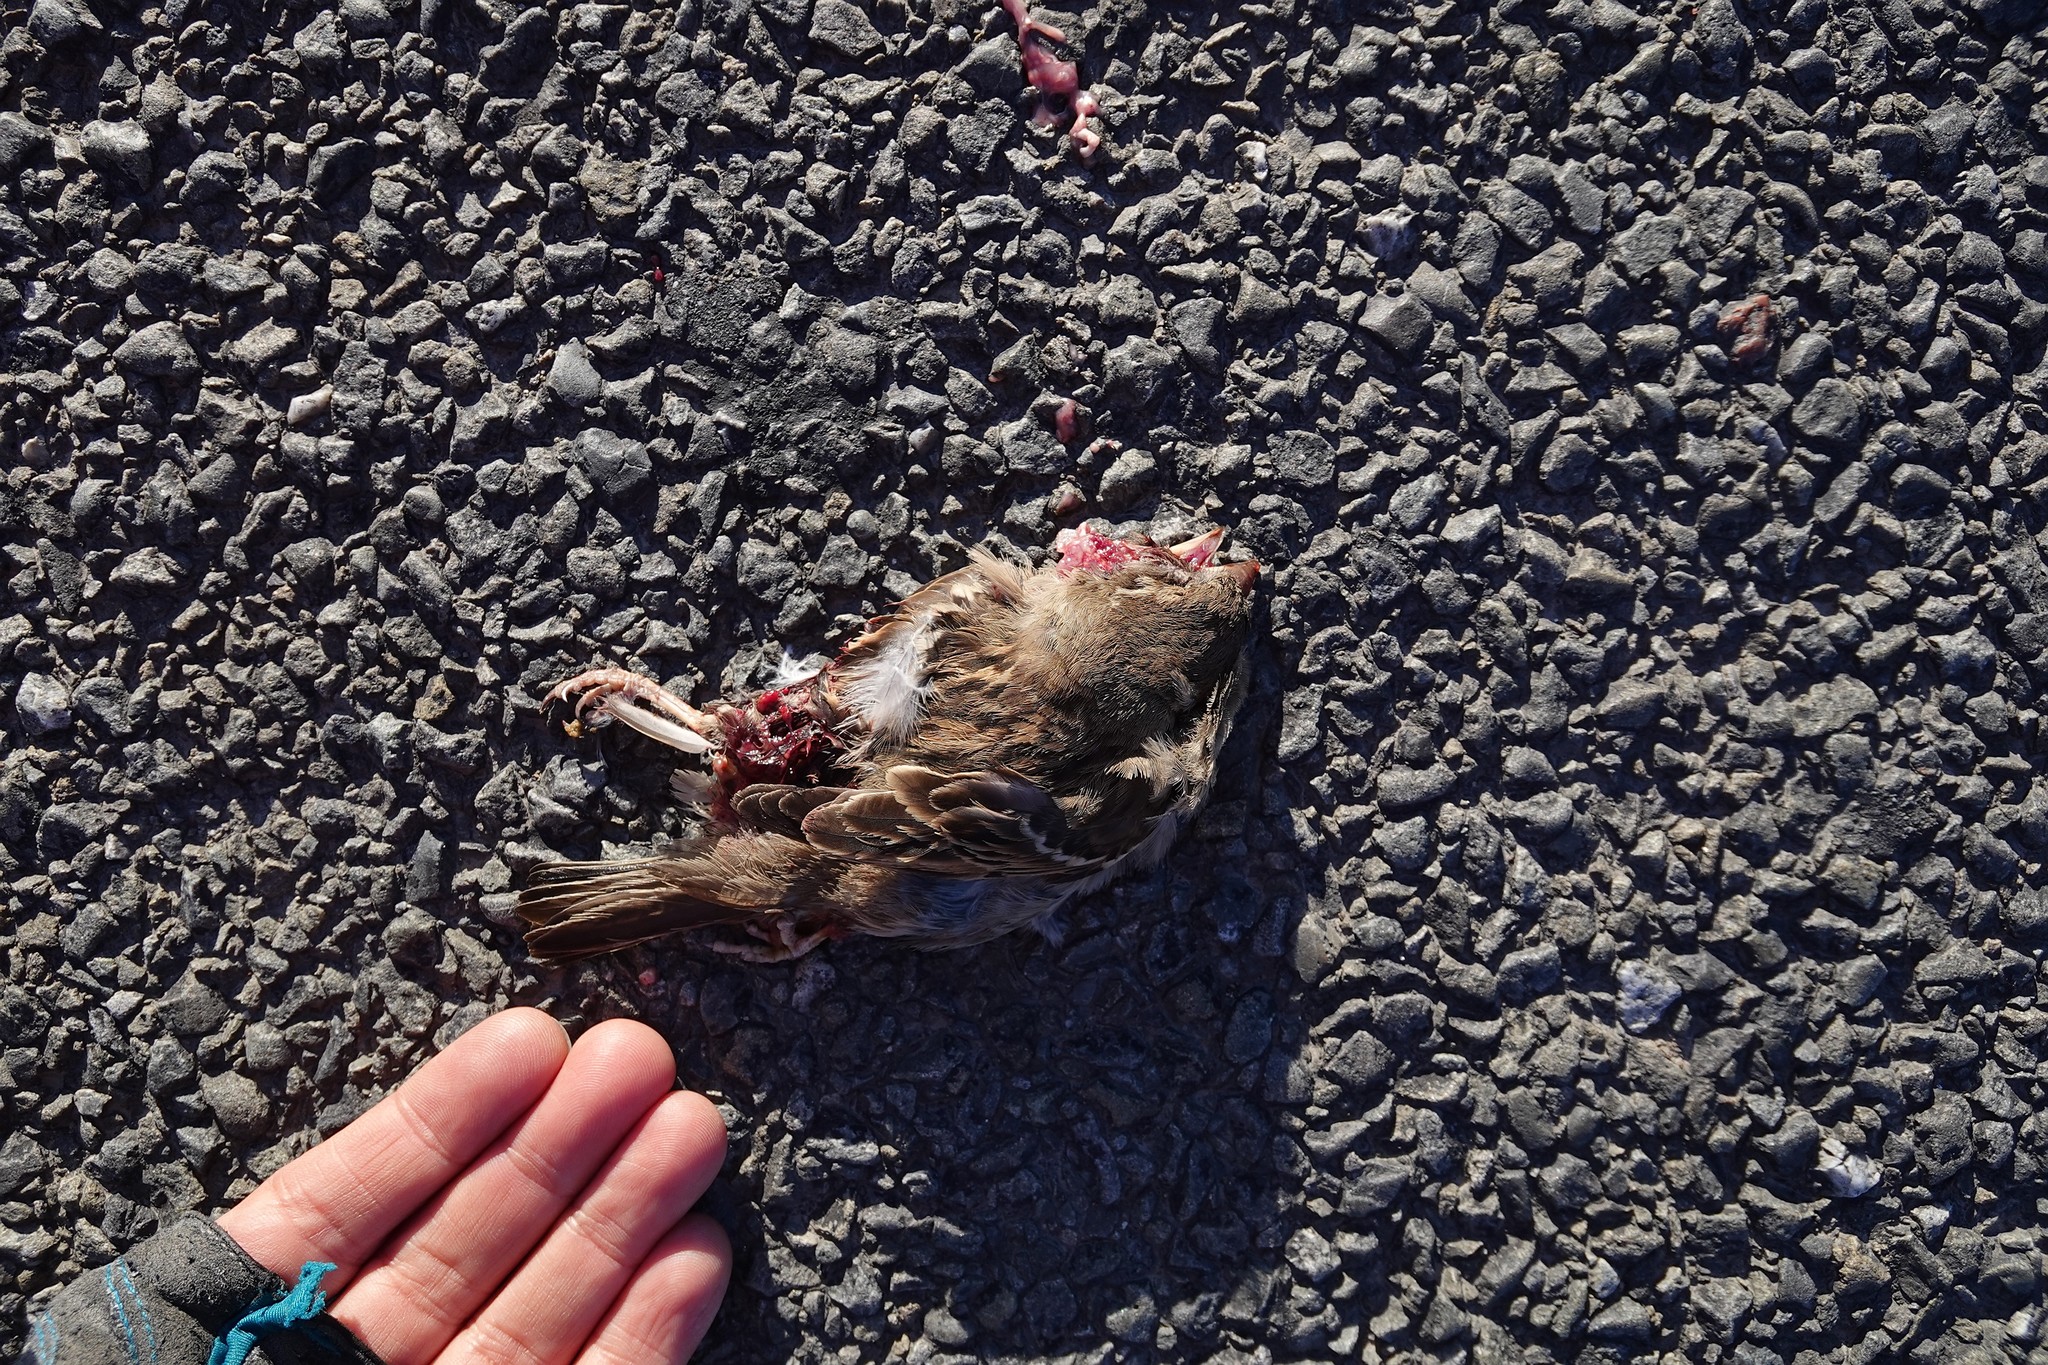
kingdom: Animalia
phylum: Chordata
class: Aves
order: Passeriformes
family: Passeridae
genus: Passer
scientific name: Passer domesticus
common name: House sparrow
